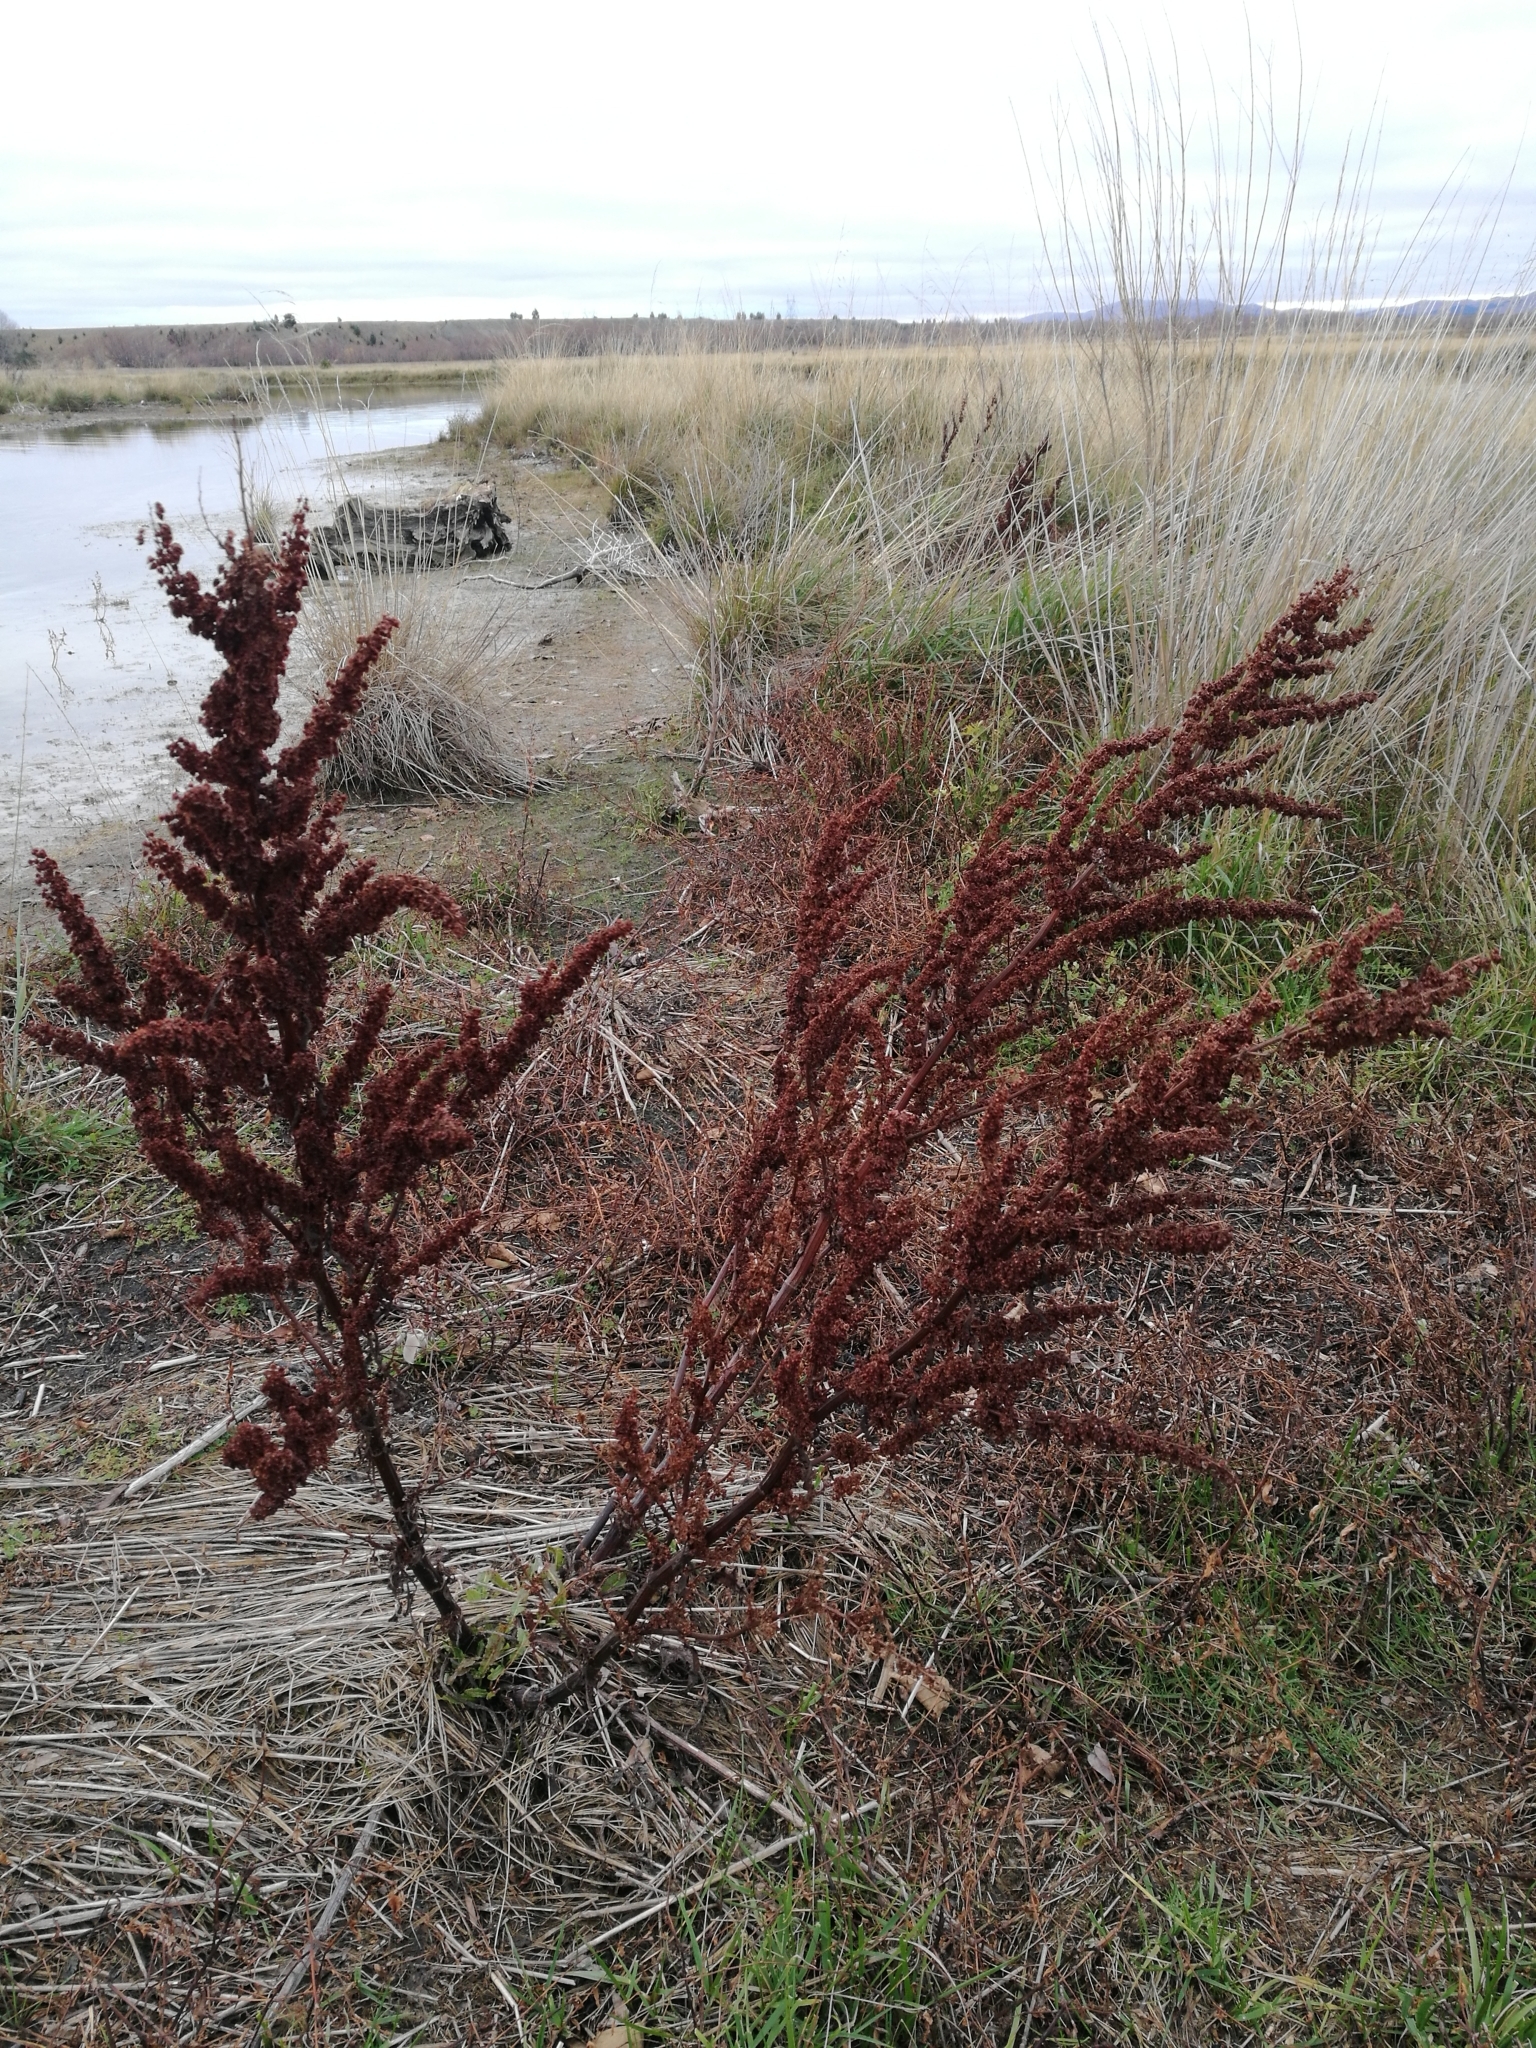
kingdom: Plantae
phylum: Tracheophyta
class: Magnoliopsida
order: Caryophyllales
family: Polygonaceae
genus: Rumex
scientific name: Rumex crispus
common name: Curled dock
